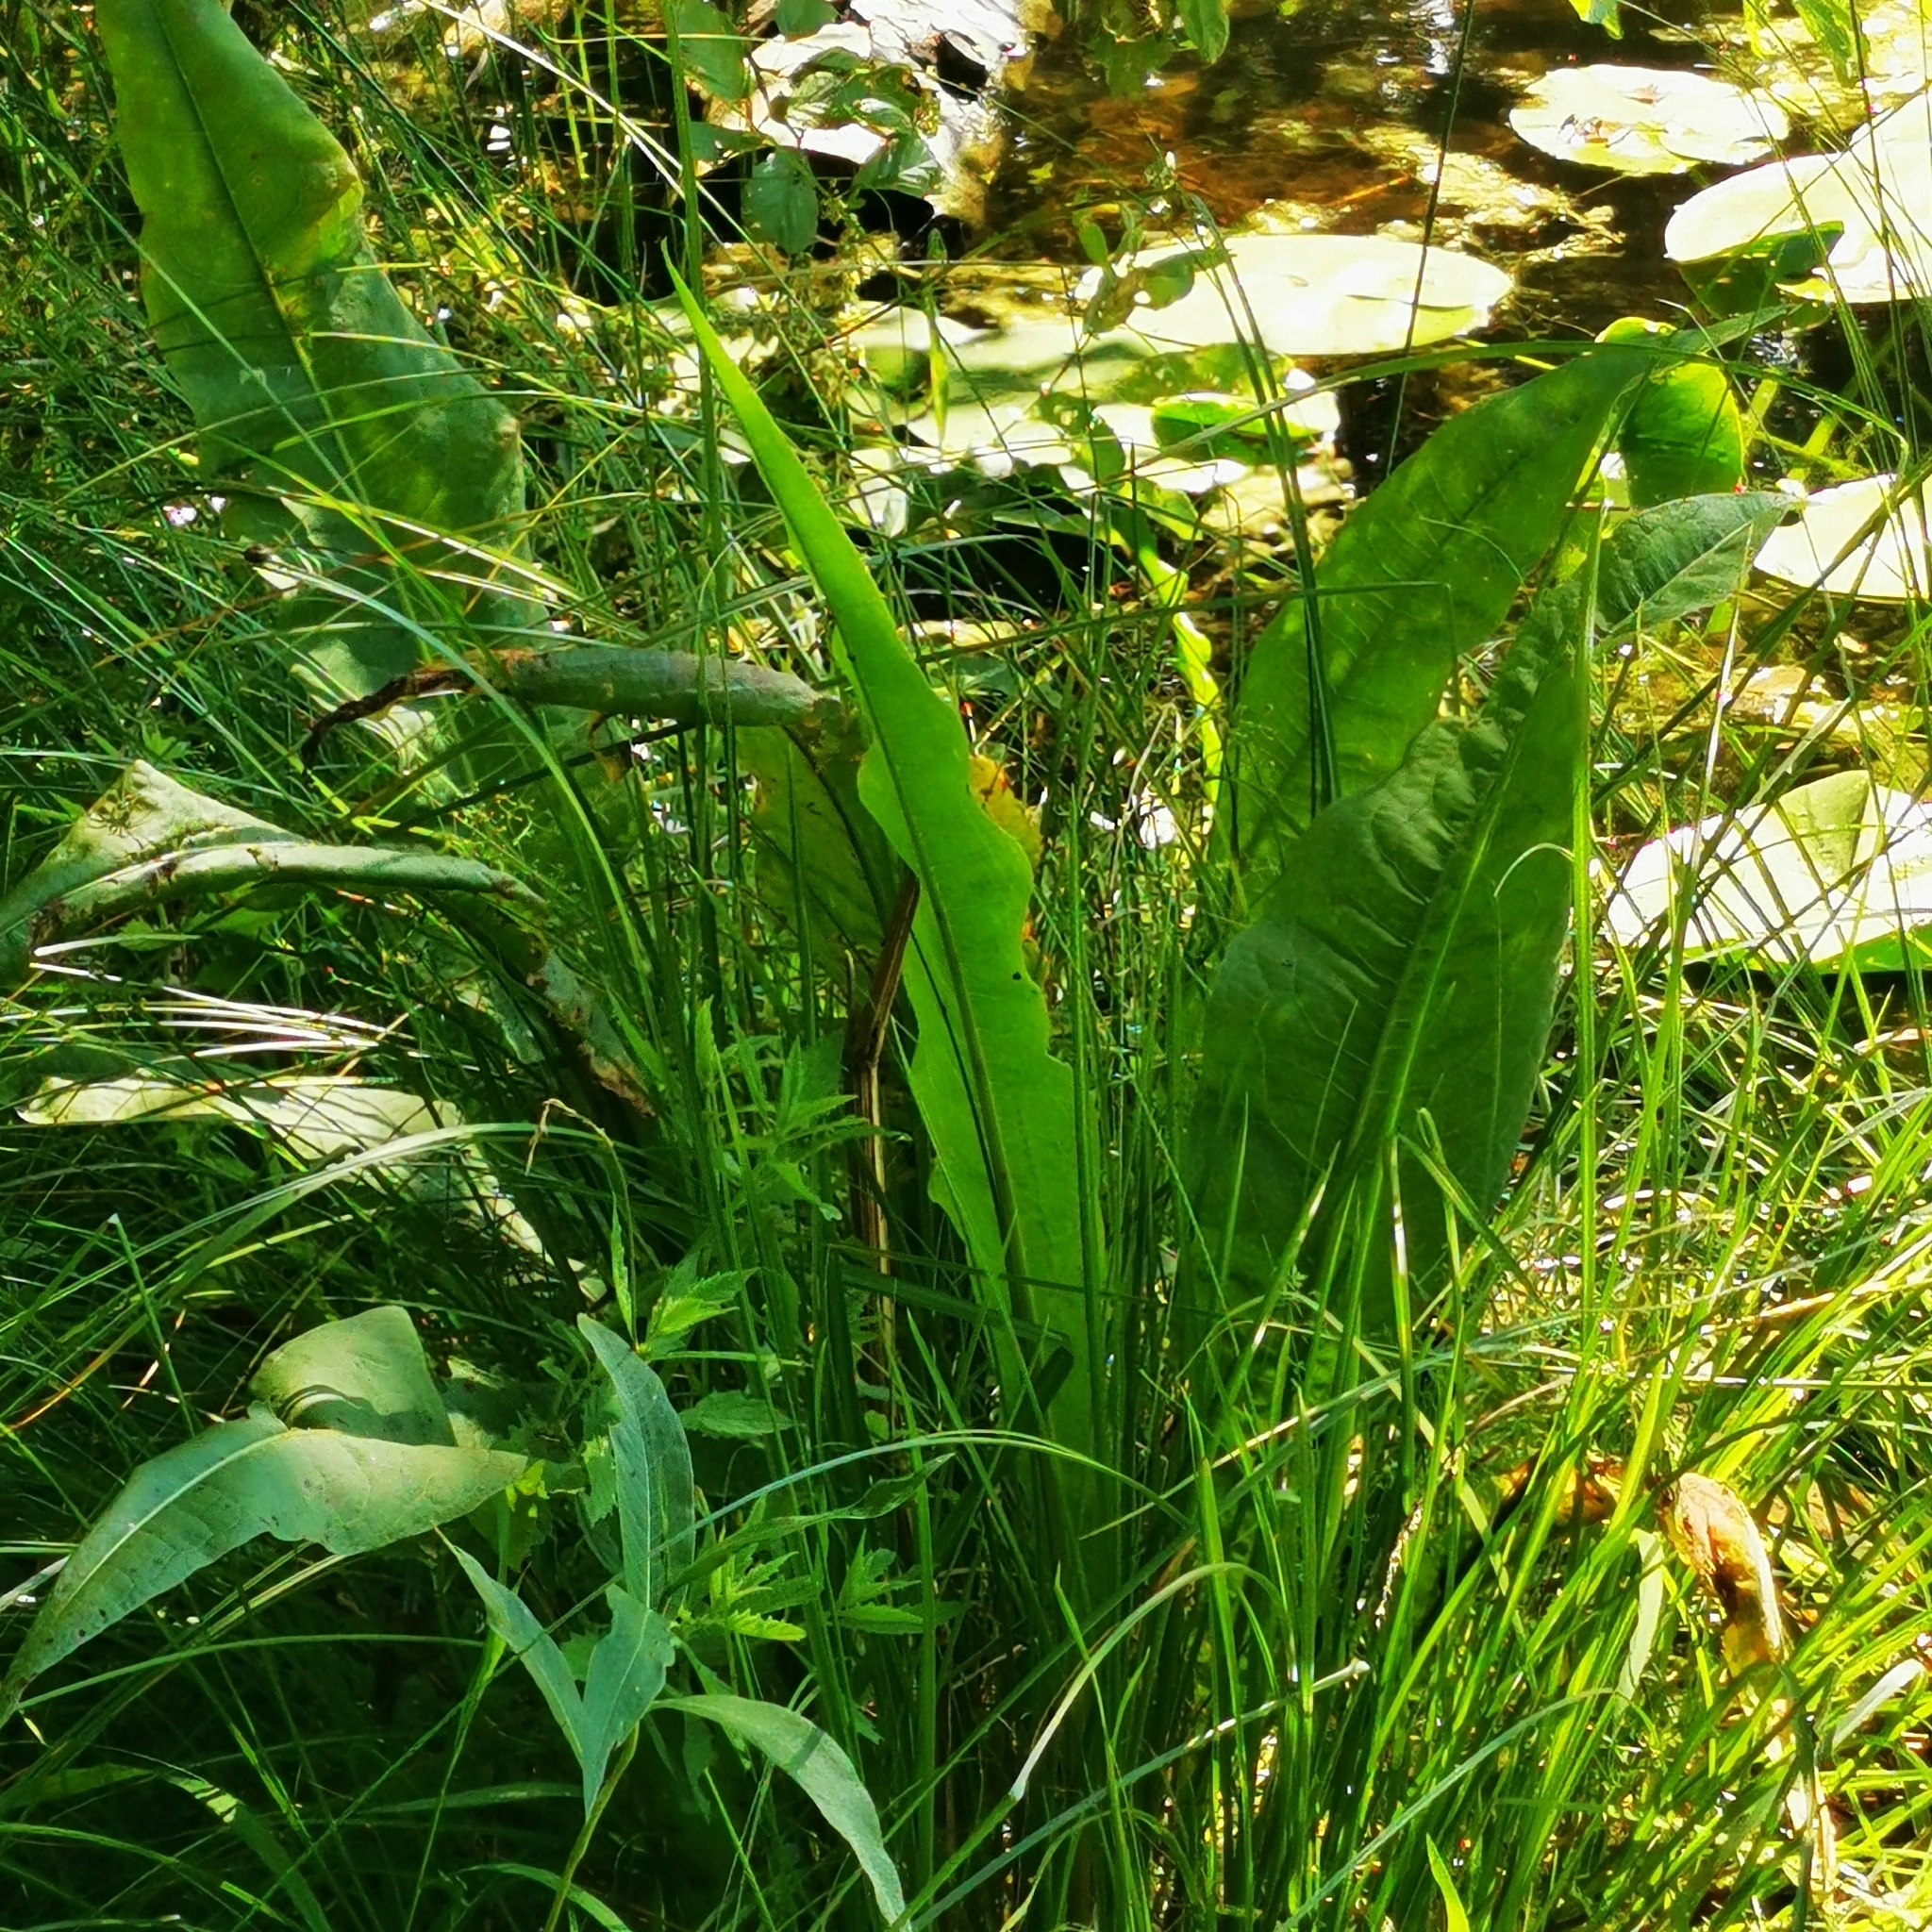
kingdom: Plantae
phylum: Tracheophyta
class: Magnoliopsida
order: Caryophyllales
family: Polygonaceae
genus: Rumex
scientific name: Rumex hydrolapathum
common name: Water dock
